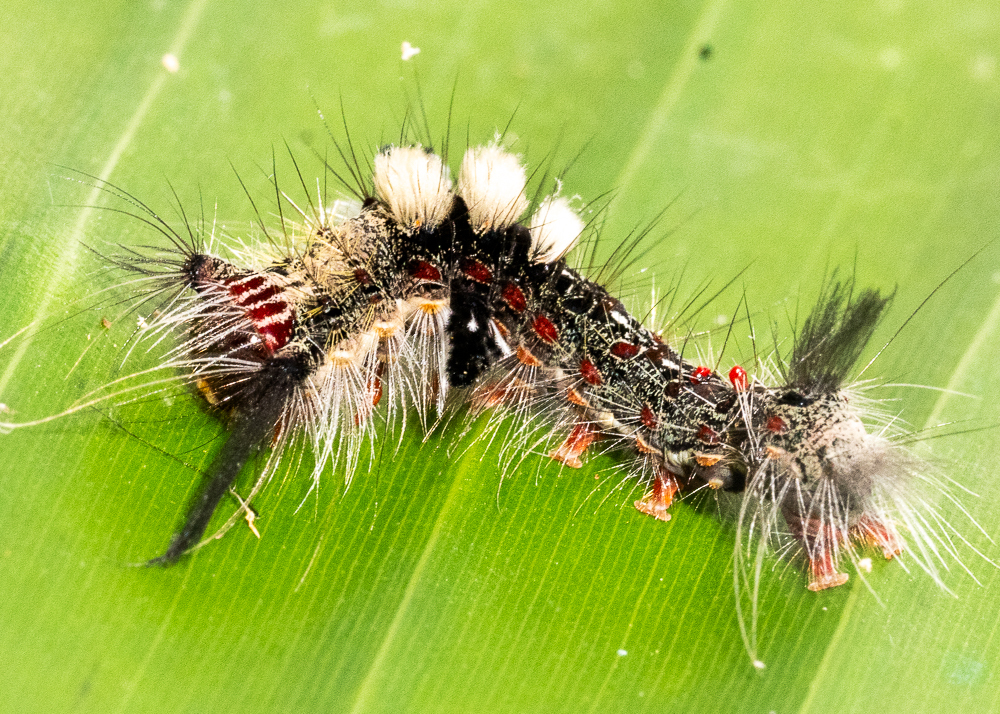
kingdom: Animalia
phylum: Arthropoda
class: Insecta
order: Lepidoptera
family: Erebidae
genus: Olene
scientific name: Olene mendosa
